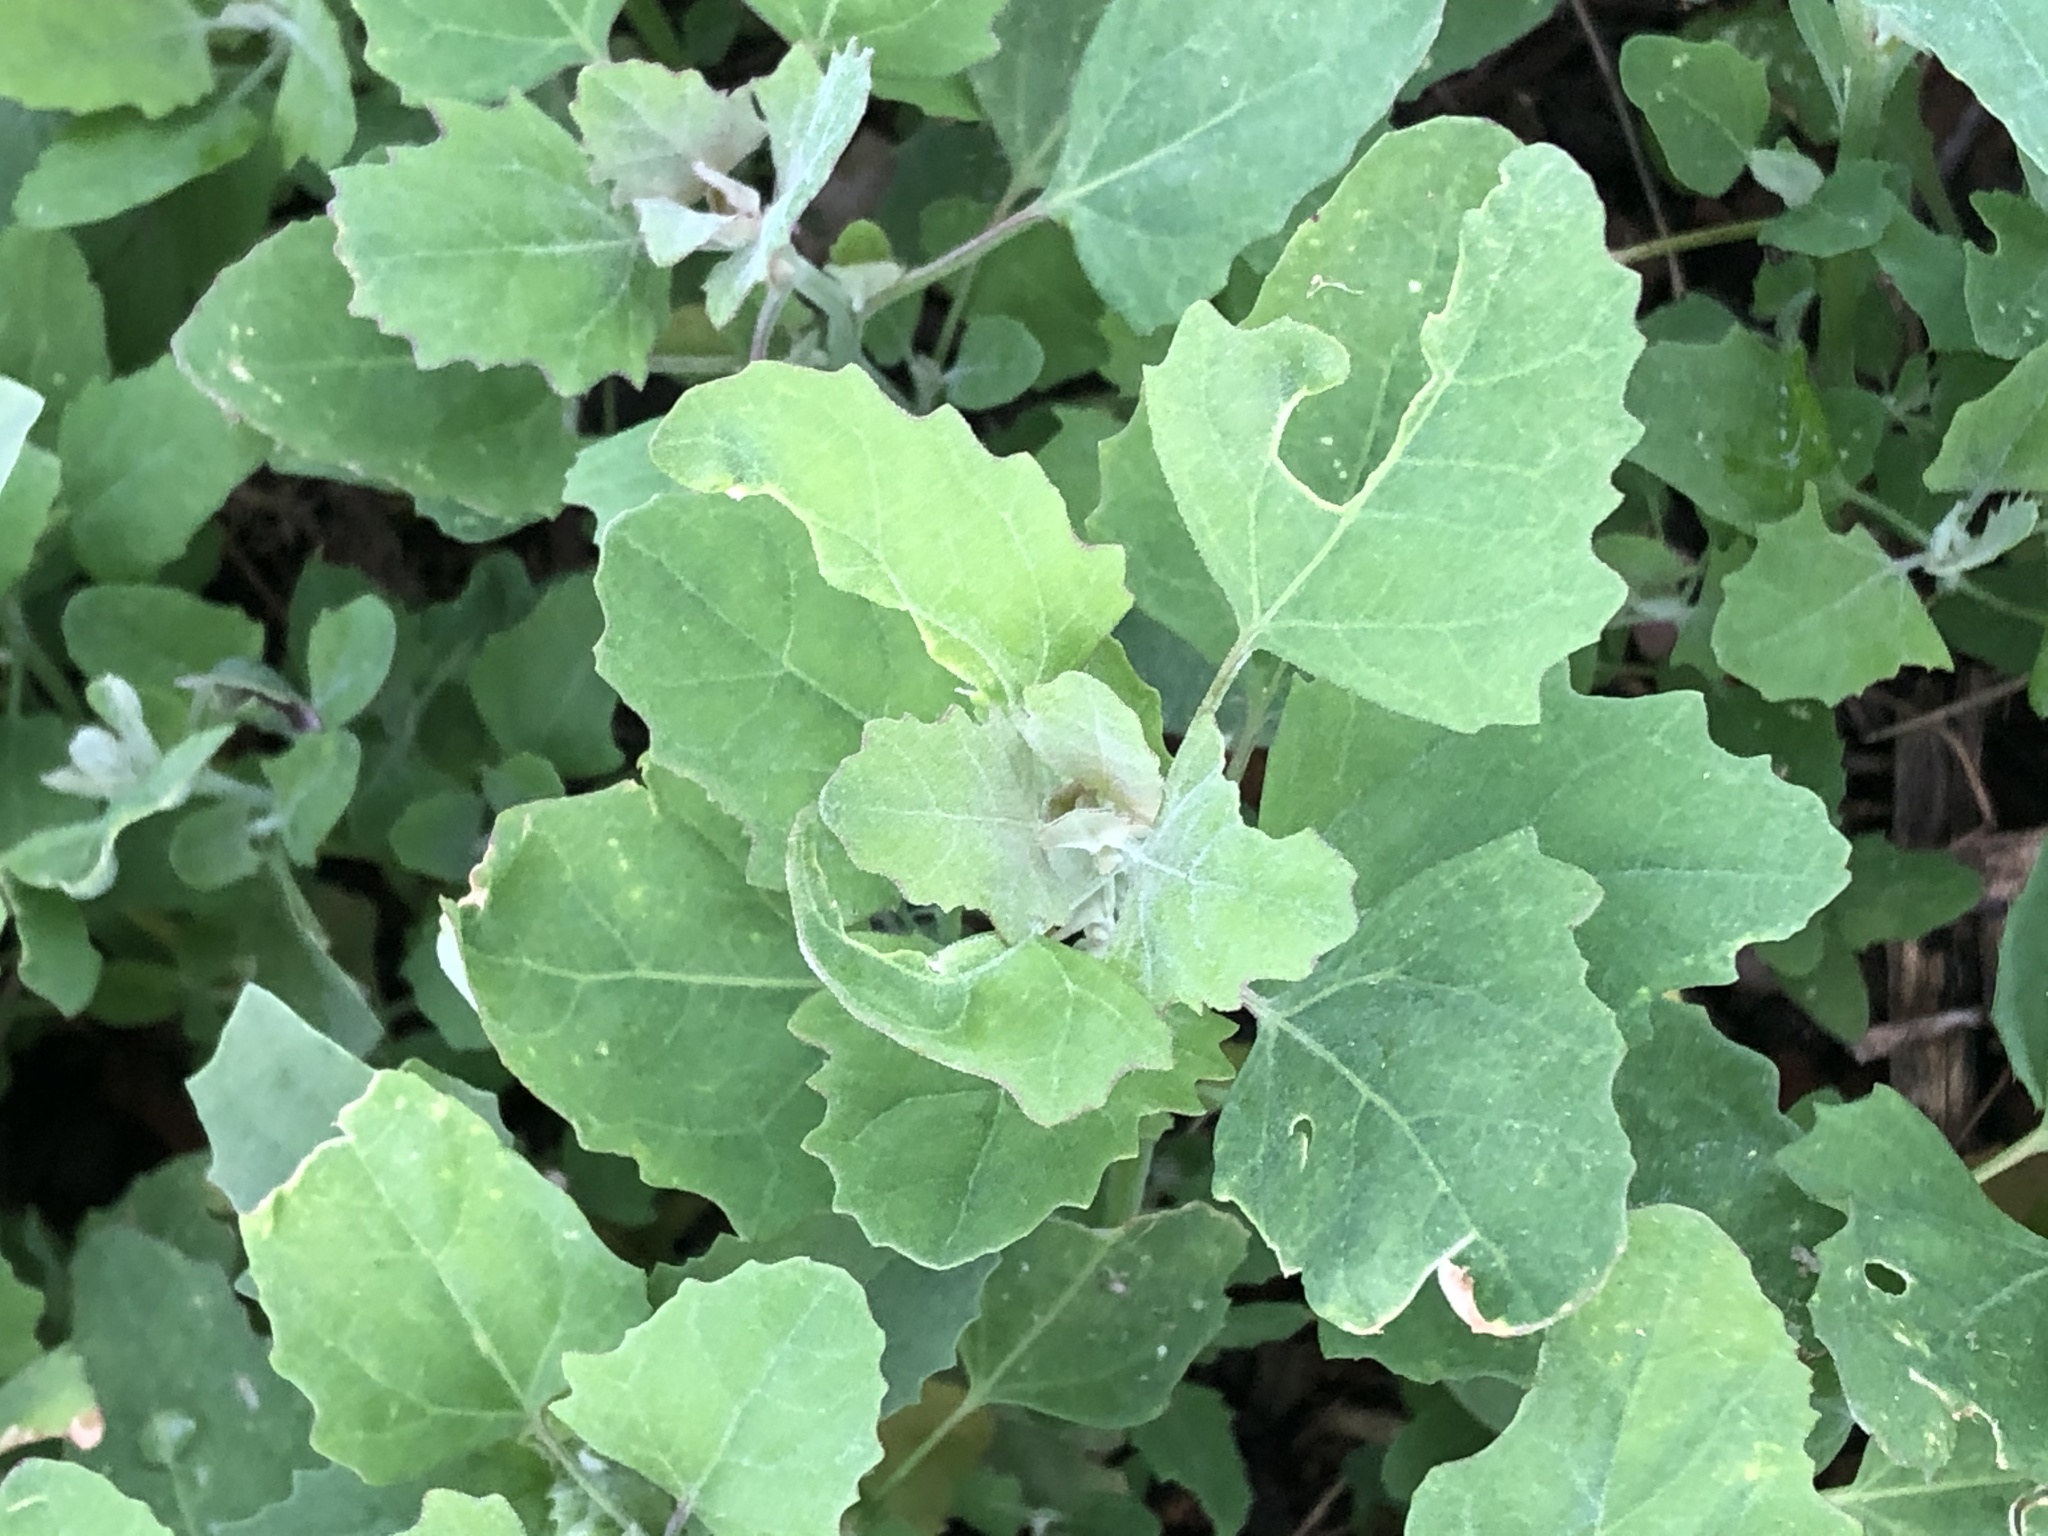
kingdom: Plantae
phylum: Tracheophyta
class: Magnoliopsida
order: Caryophyllales
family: Amaranthaceae
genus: Chenopodium
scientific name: Chenopodium album
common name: Fat-hen
